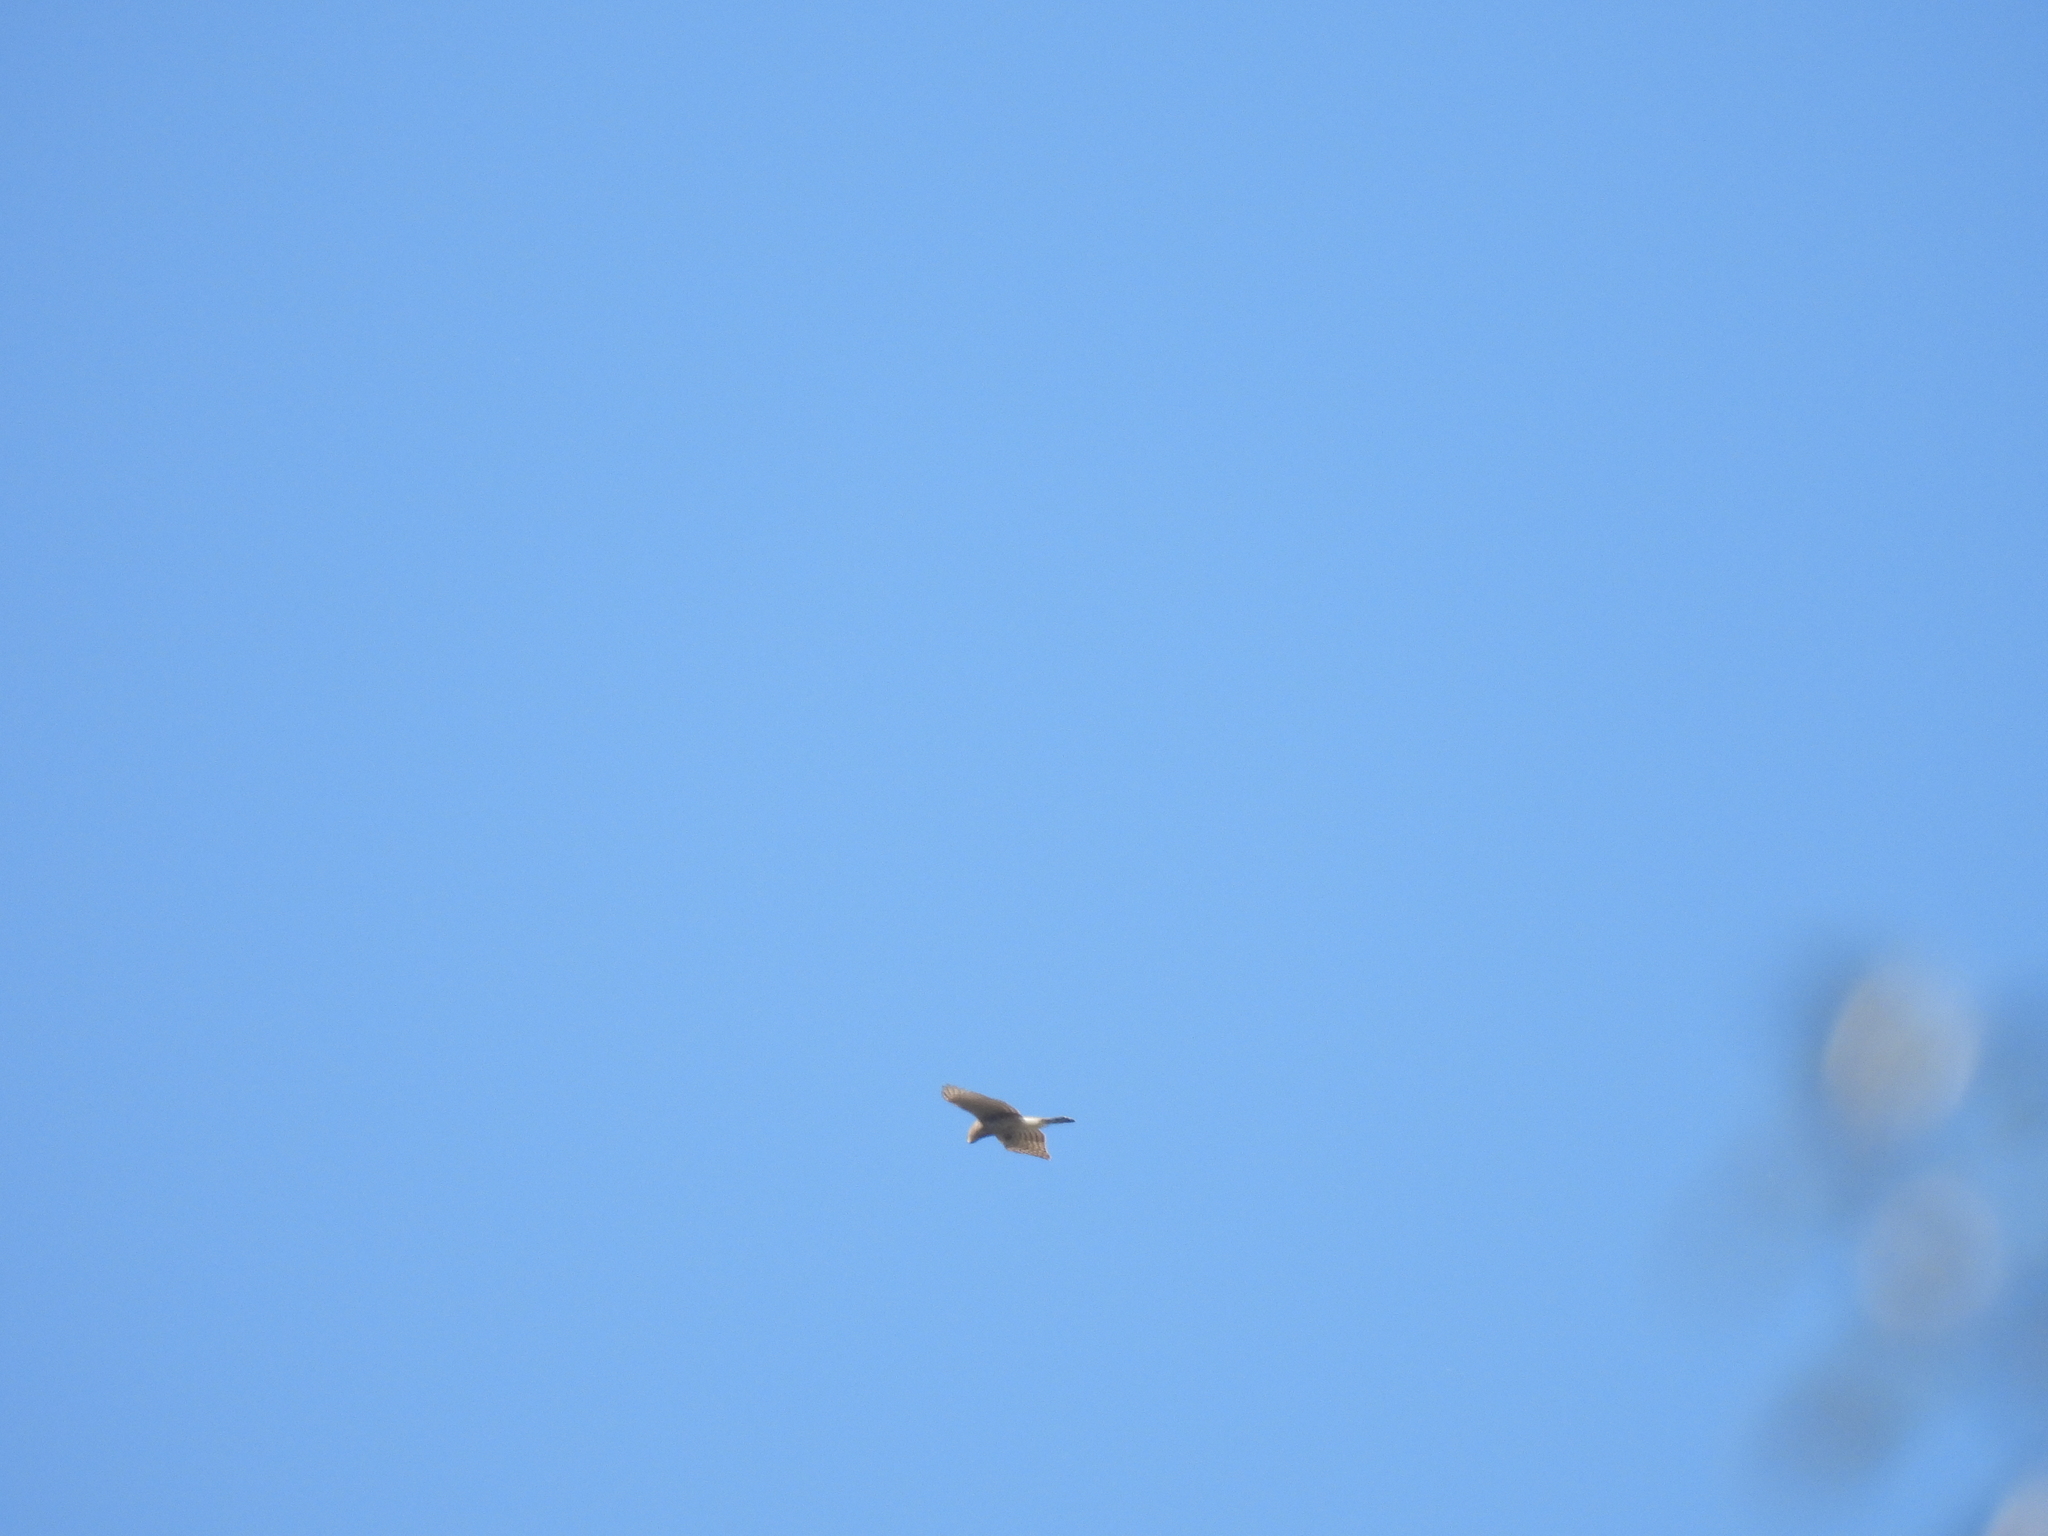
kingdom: Animalia
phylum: Chordata
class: Aves
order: Accipitriformes
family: Accipitridae
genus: Accipiter
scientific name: Accipiter cooperii
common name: Cooper's hawk
